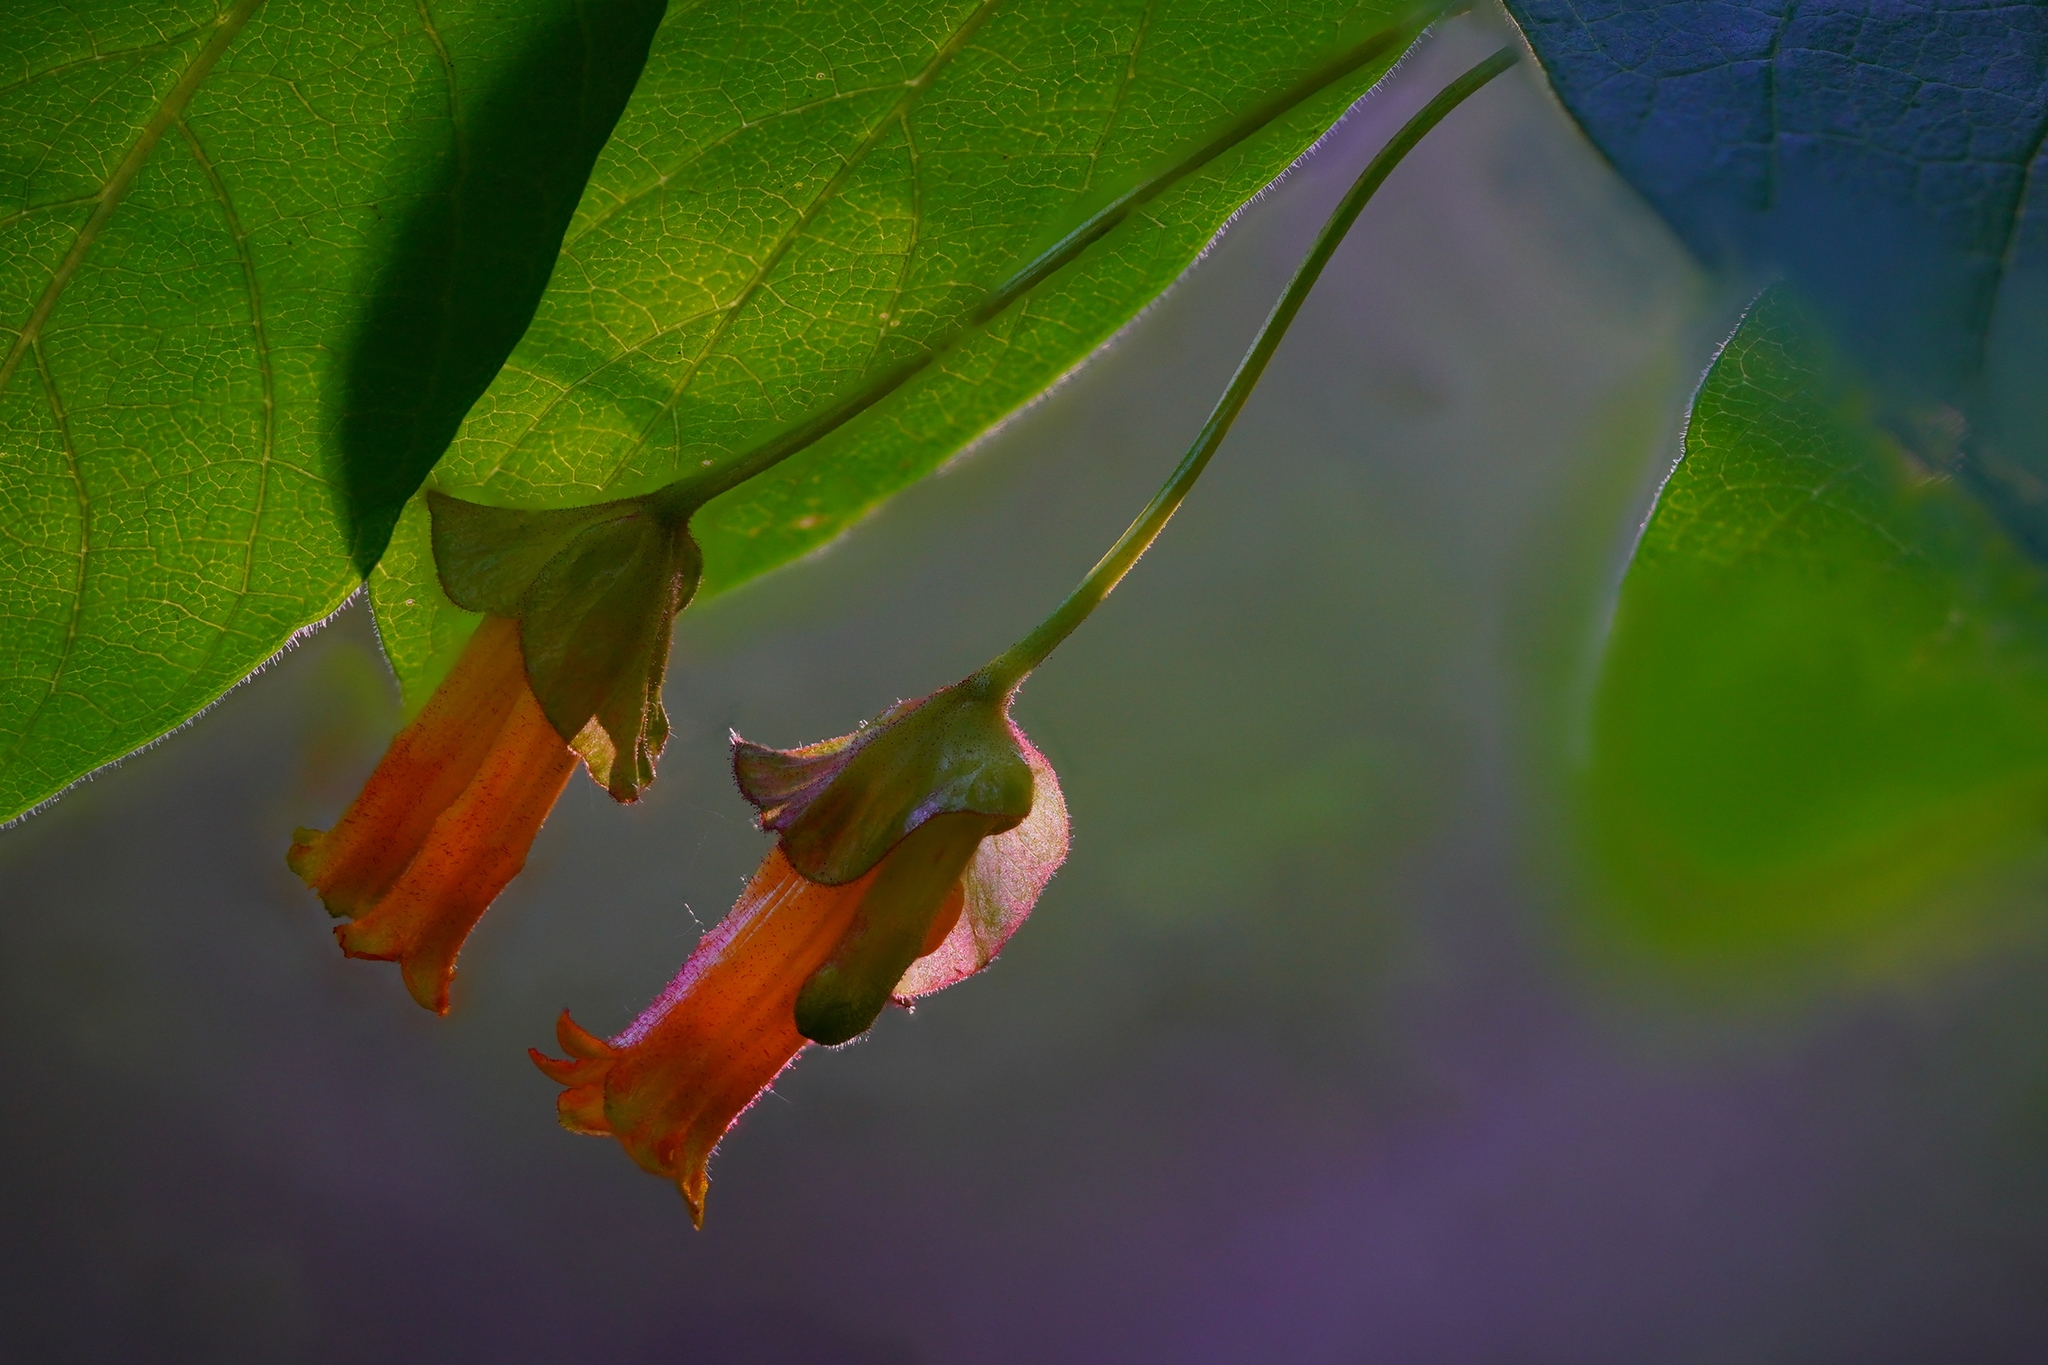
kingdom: Plantae
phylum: Tracheophyta
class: Magnoliopsida
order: Dipsacales
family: Caprifoliaceae
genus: Lonicera
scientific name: Lonicera involucrata
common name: Californian honeysuckle
